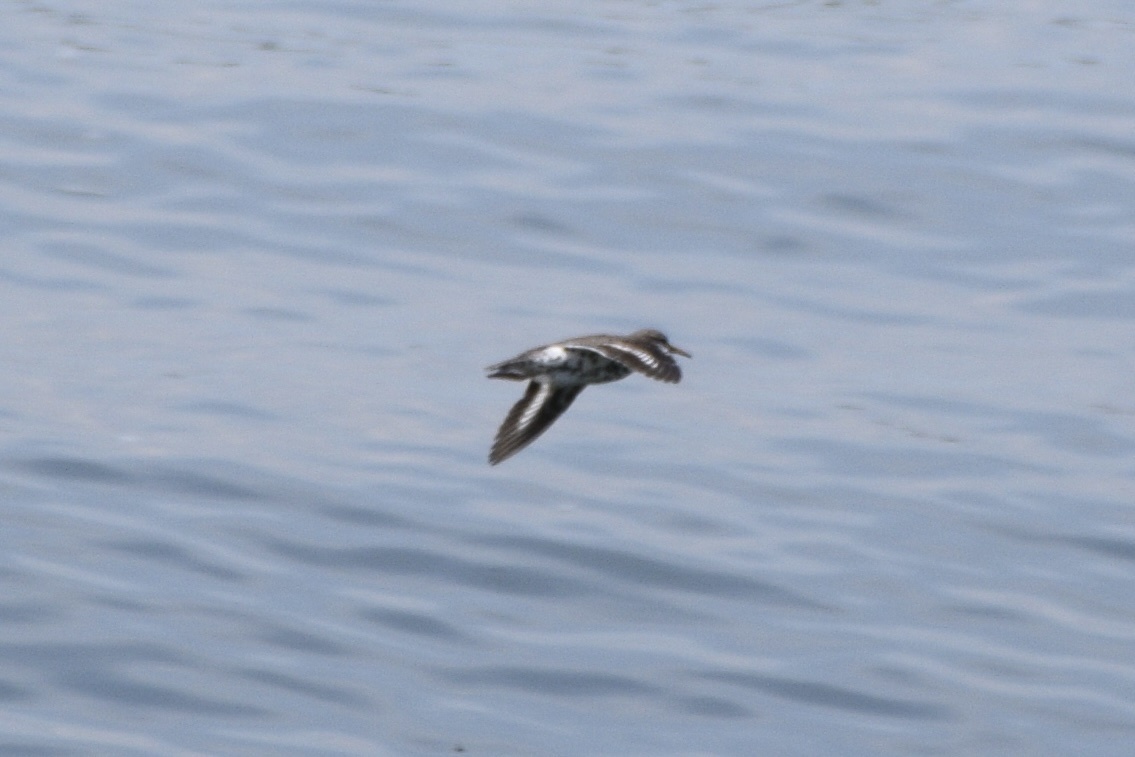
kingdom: Animalia
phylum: Chordata
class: Aves
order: Charadriiformes
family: Scolopacidae
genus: Actitis
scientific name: Actitis macularius
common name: Spotted sandpiper
